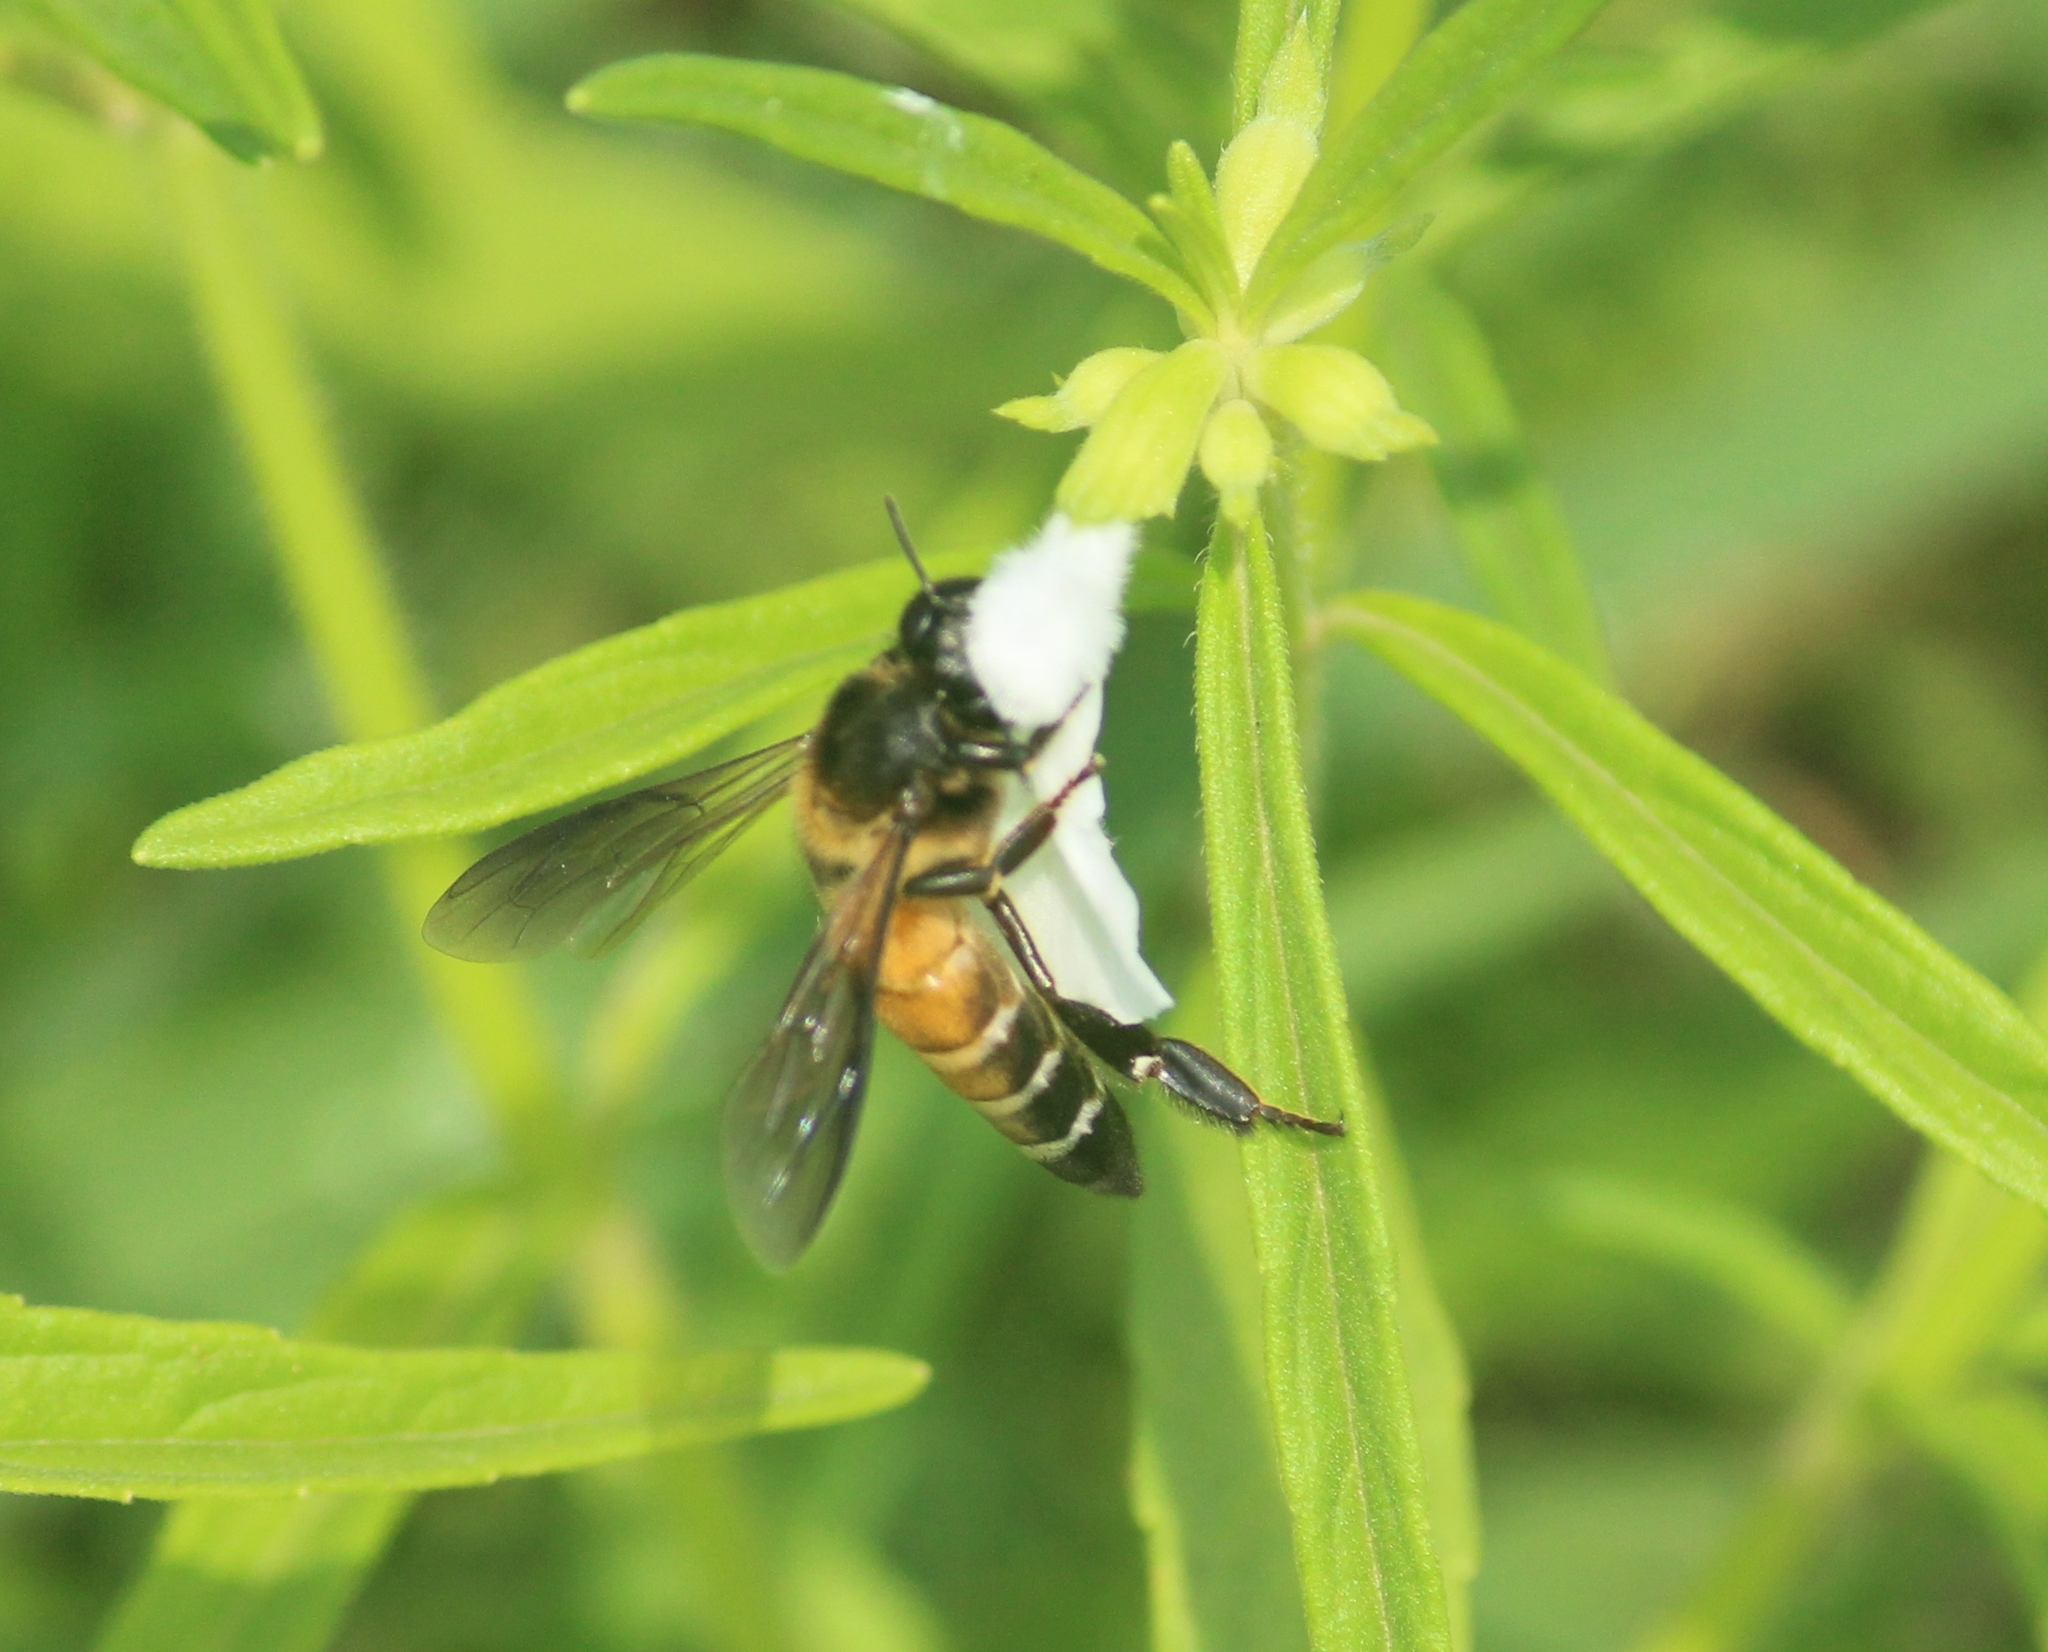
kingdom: Animalia
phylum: Arthropoda
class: Insecta
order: Hymenoptera
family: Apidae
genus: Apis
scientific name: Apis dorsata
